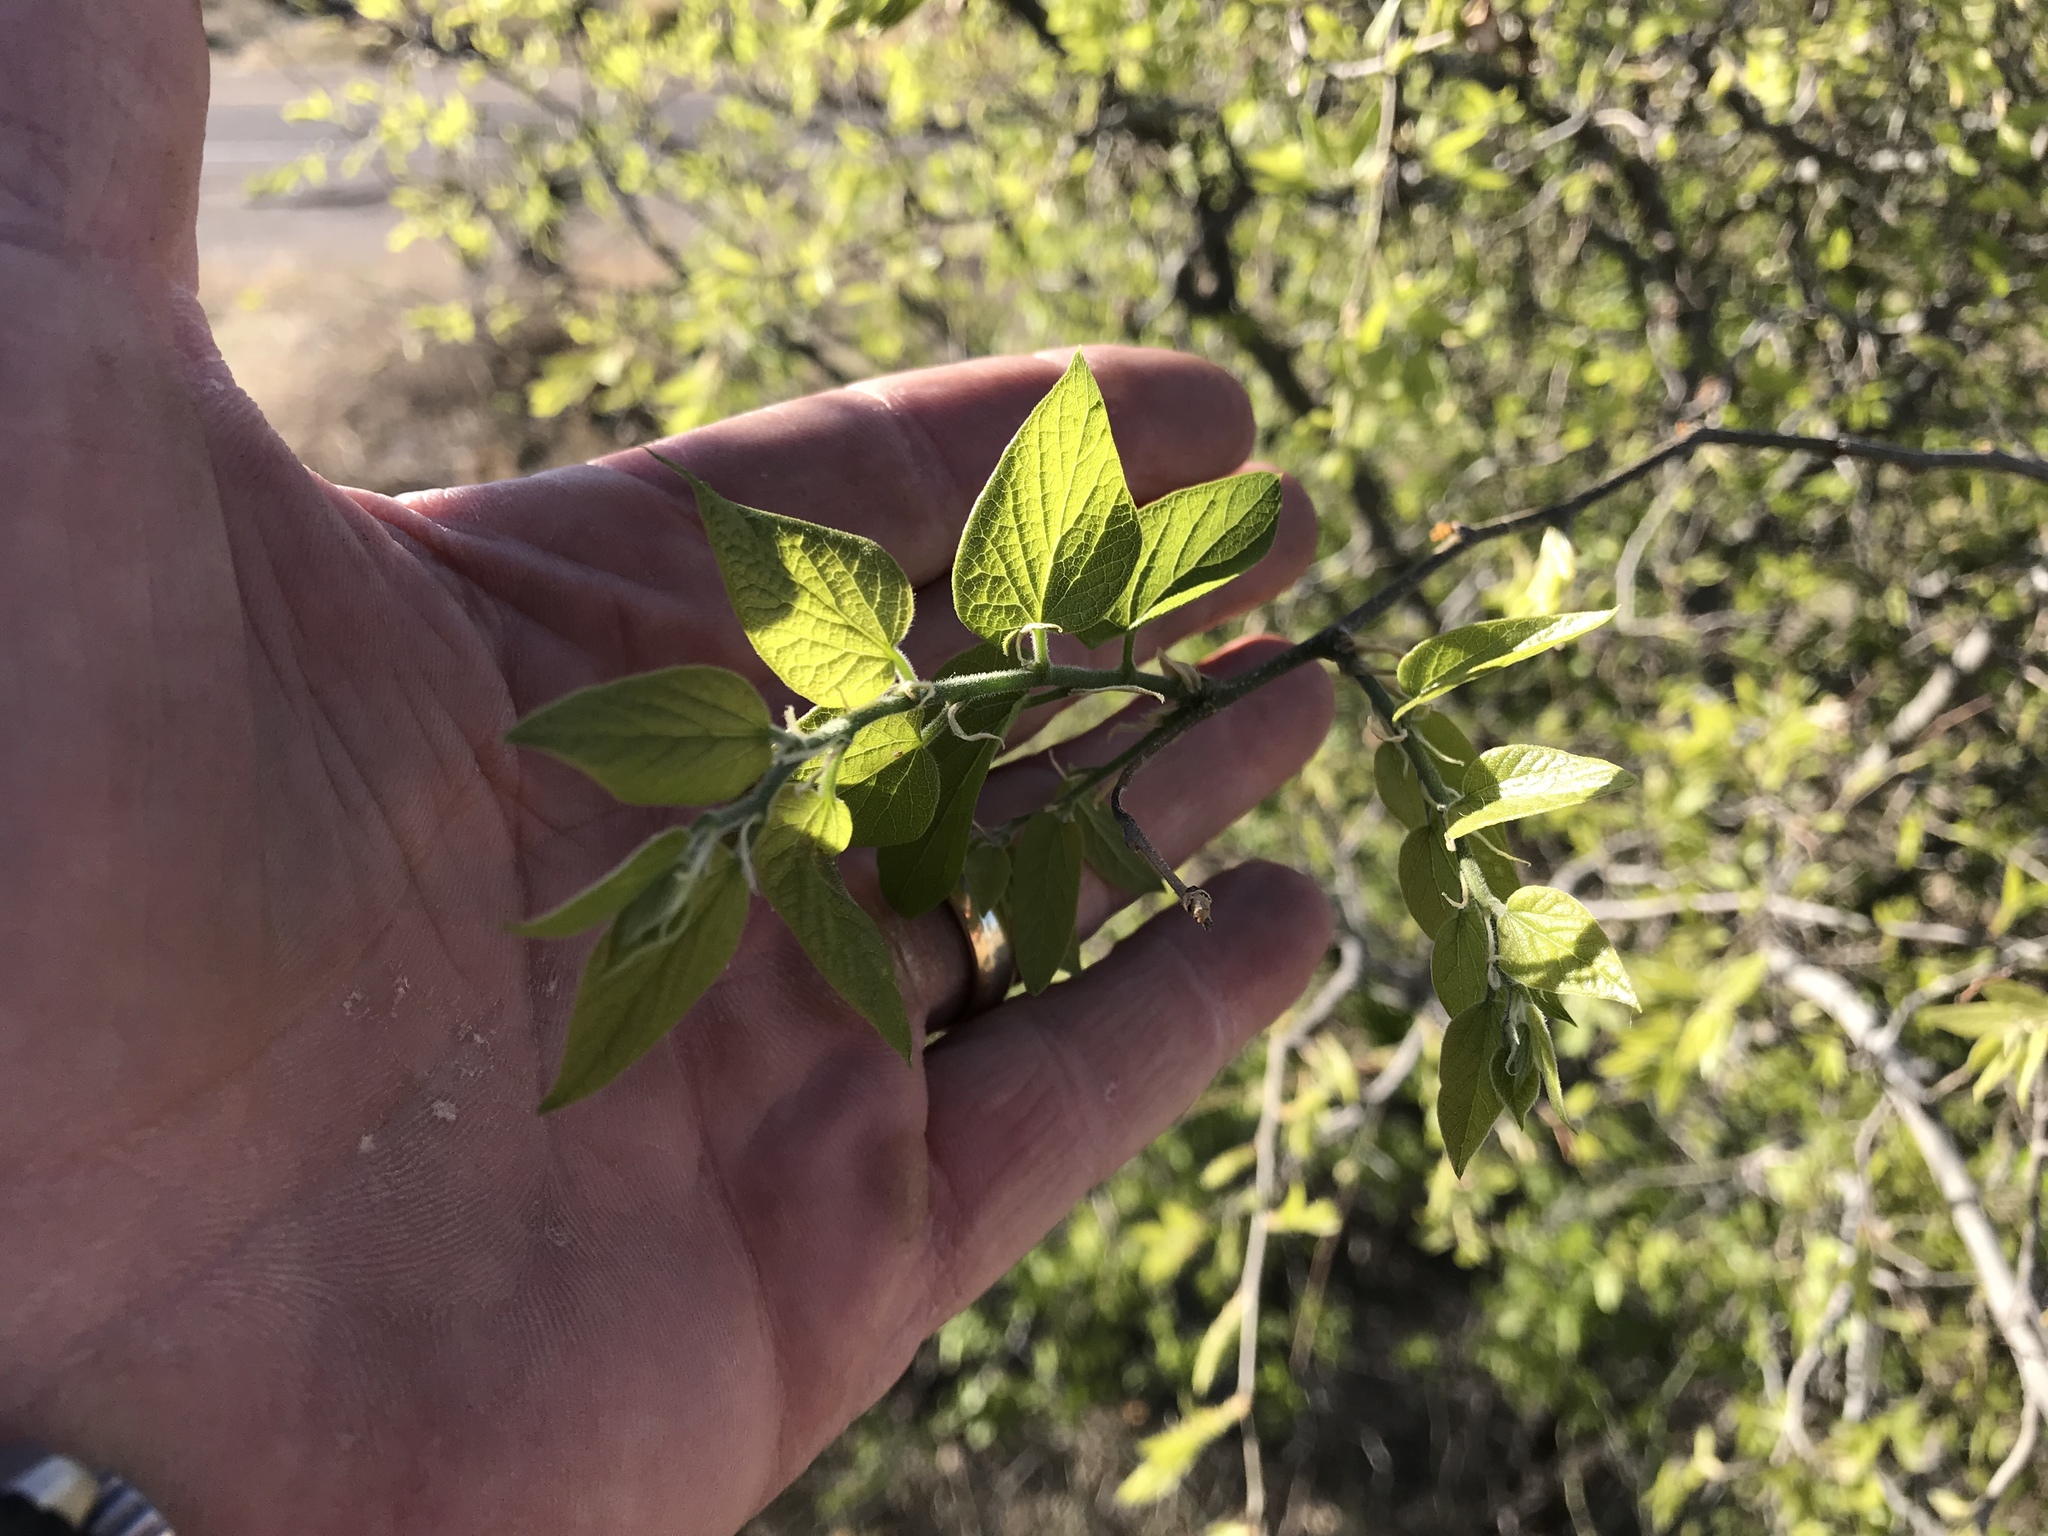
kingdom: Plantae
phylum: Tracheophyta
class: Magnoliopsida
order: Rosales
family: Cannabaceae
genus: Celtis
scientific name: Celtis reticulata
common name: Netleaf hackberry
